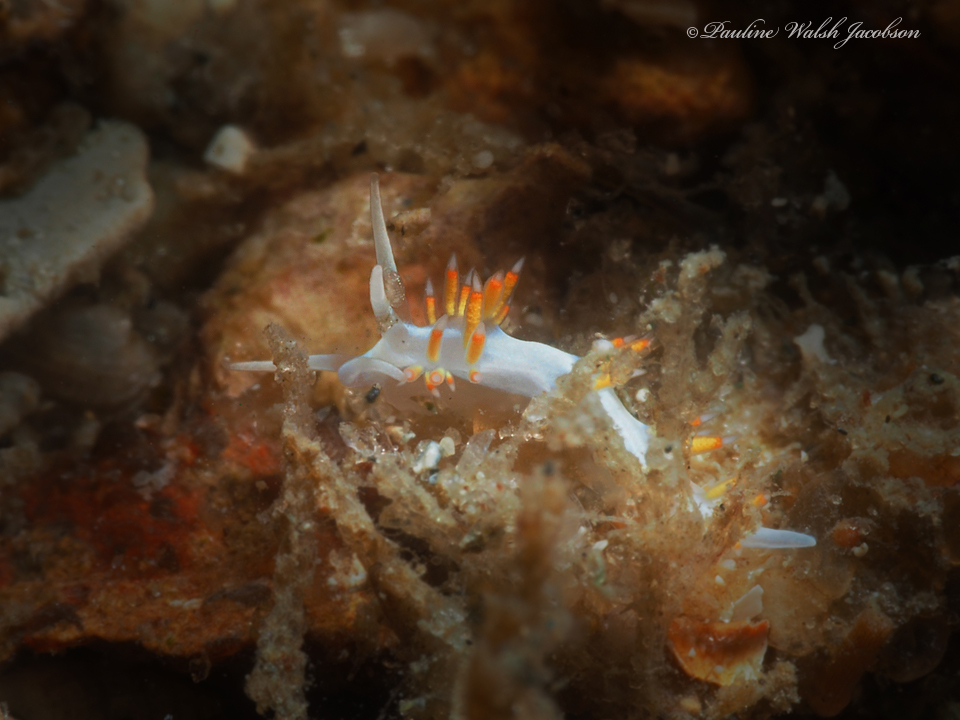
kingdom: Animalia
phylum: Mollusca
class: Gastropoda
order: Nudibranchia
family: Flabellinidae
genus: Flabellina
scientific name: Flabellina dushia
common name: Dushia flabellina
